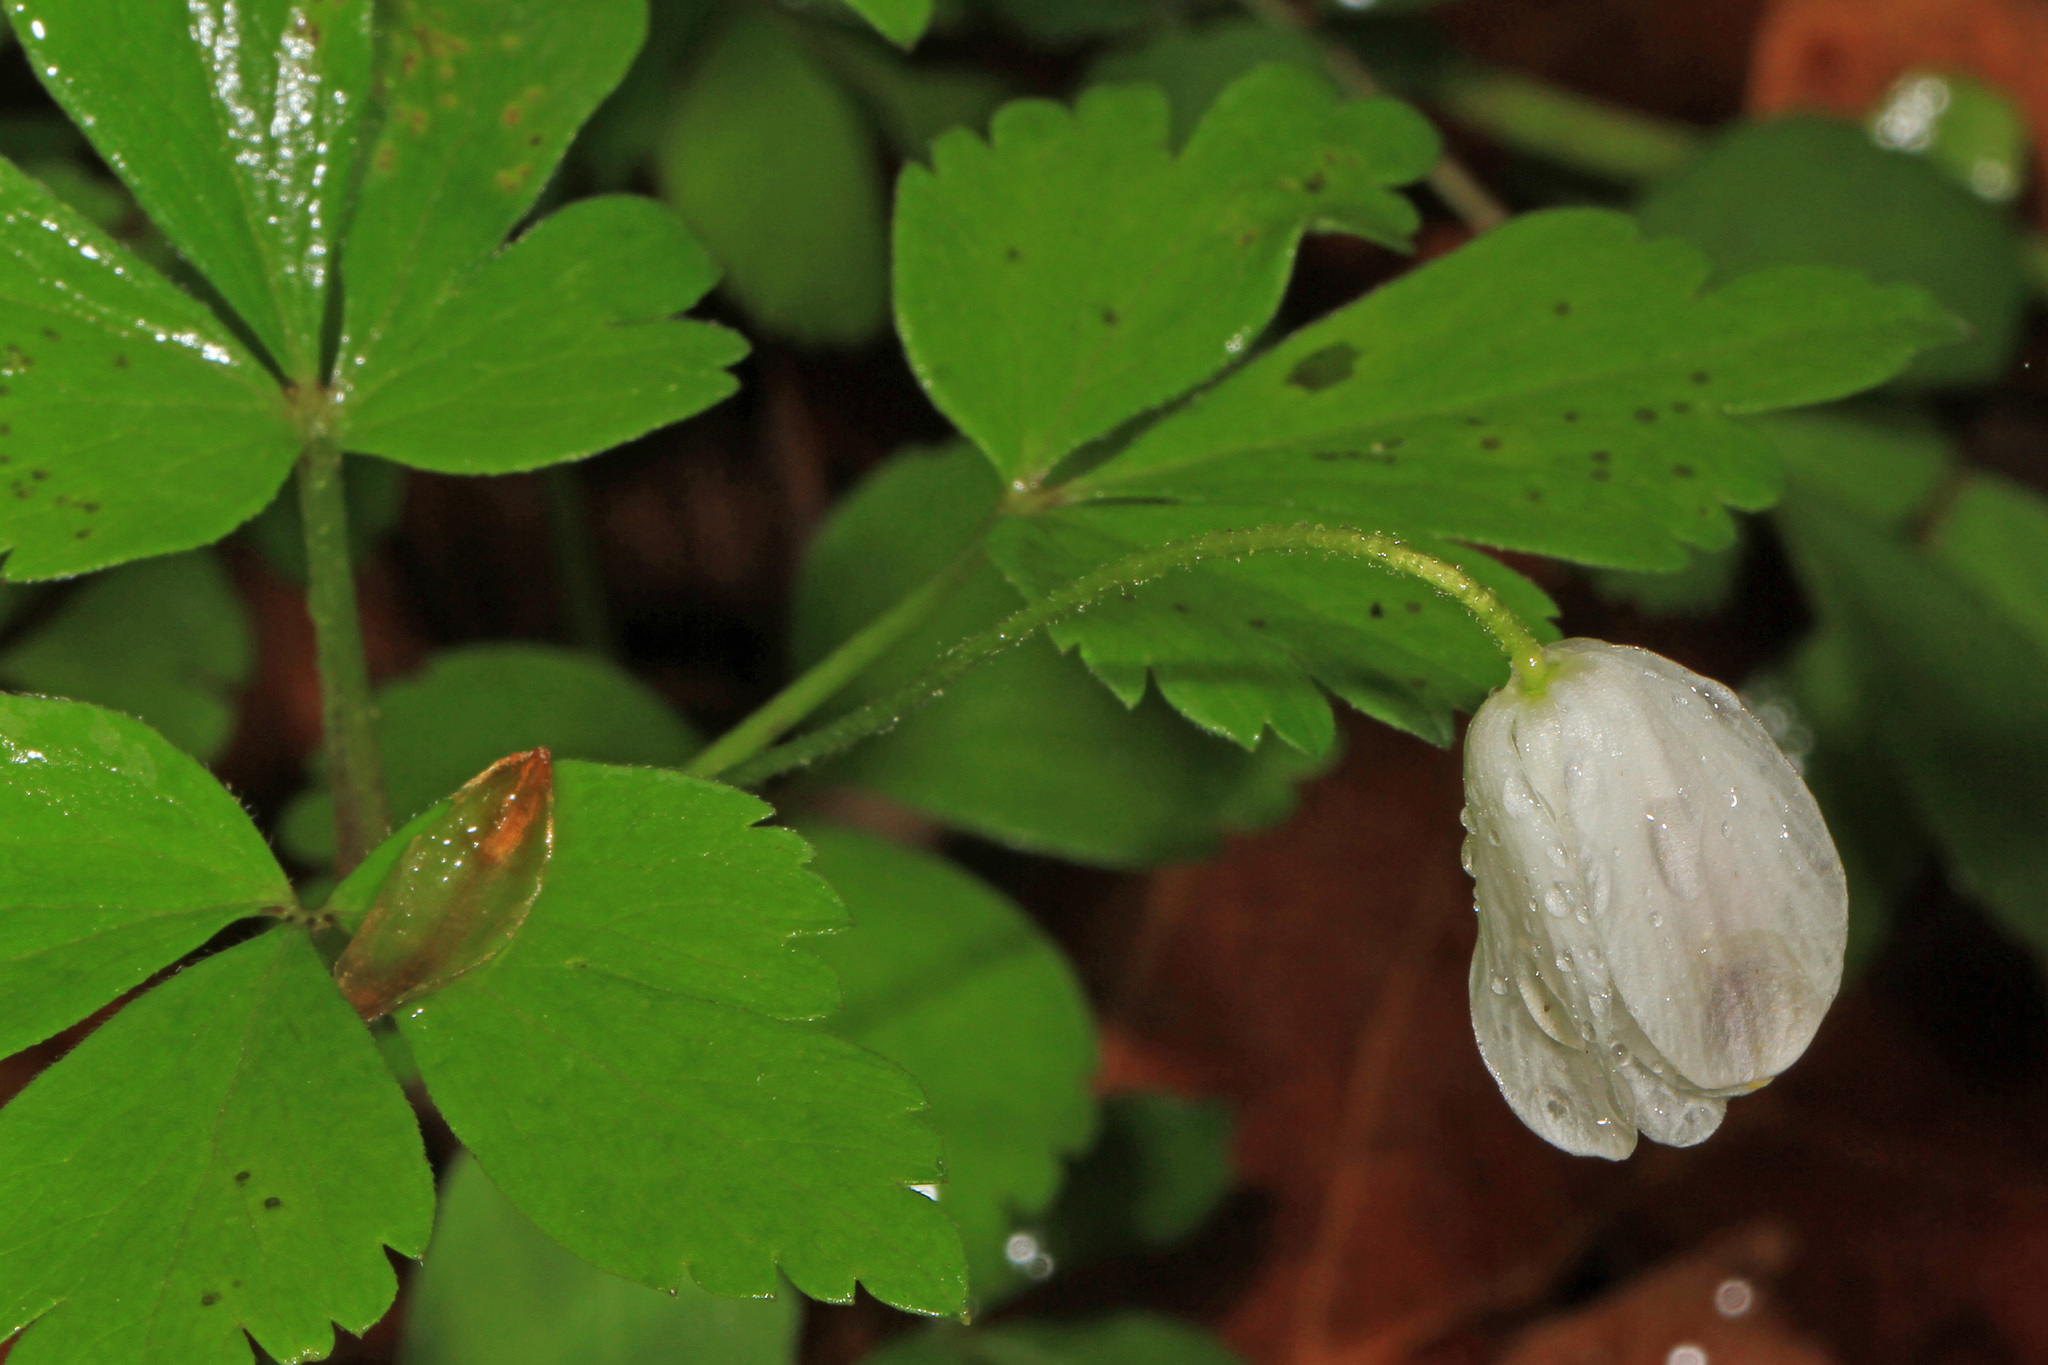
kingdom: Plantae
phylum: Tracheophyta
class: Magnoliopsida
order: Ranunculales
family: Ranunculaceae
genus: Anemone
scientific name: Anemone quinquefolia
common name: Wood anemone
